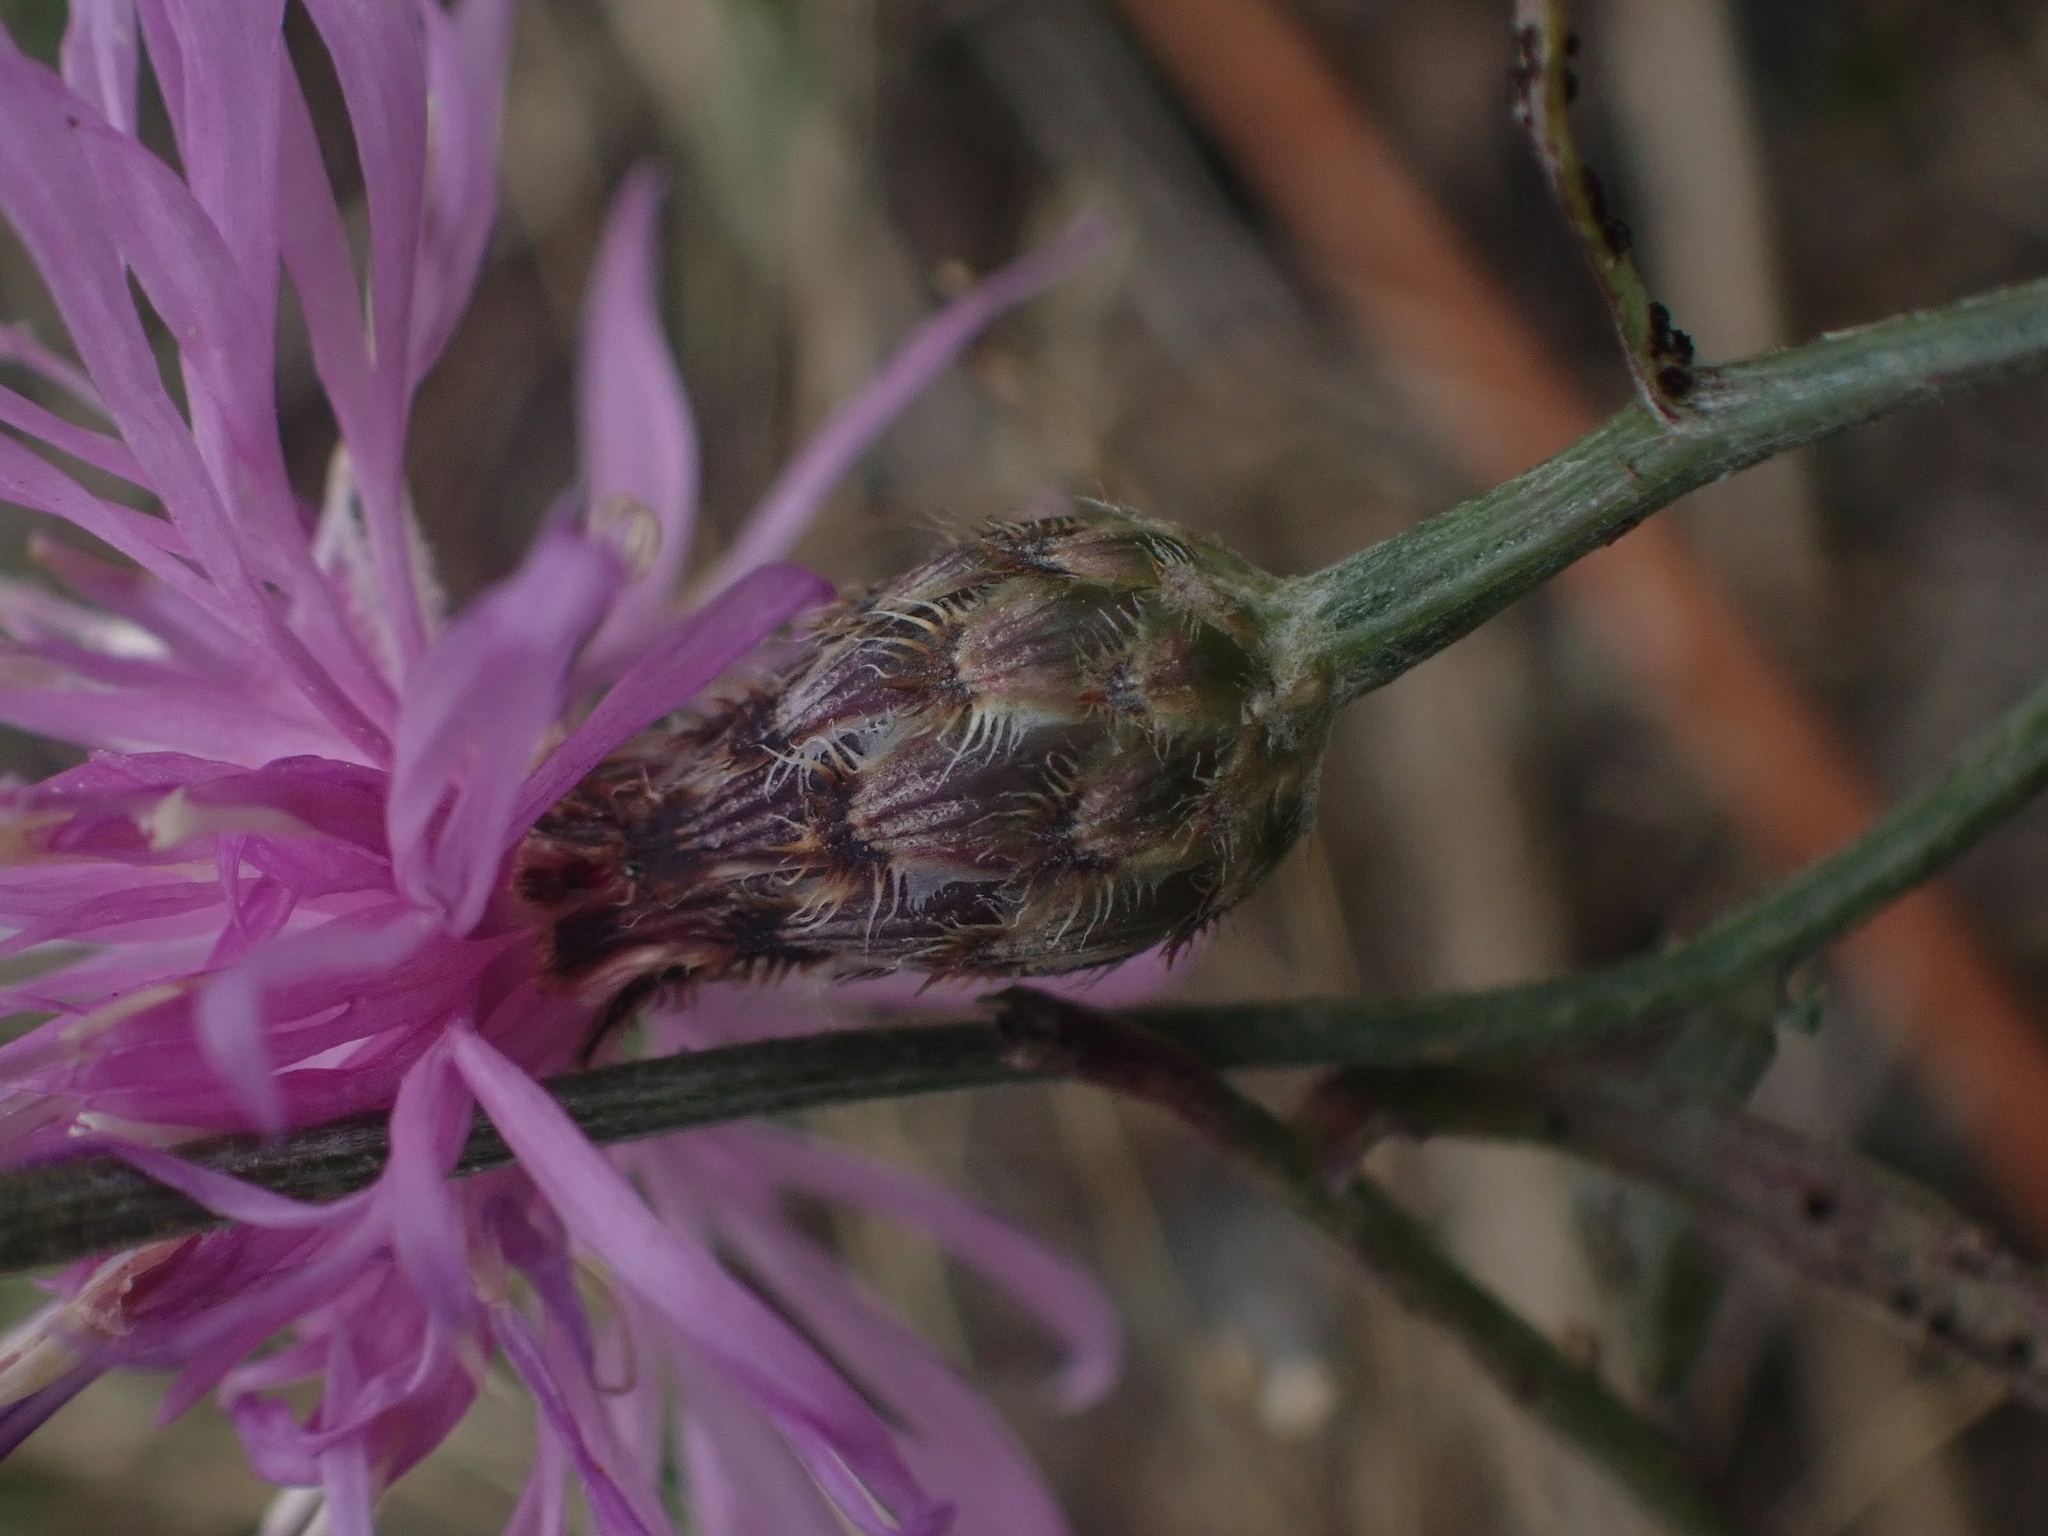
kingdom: Plantae
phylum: Tracheophyta
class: Magnoliopsida
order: Asterales
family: Asteraceae
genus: Centaurea
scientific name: Centaurea stoebe
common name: Spotted knapweed
